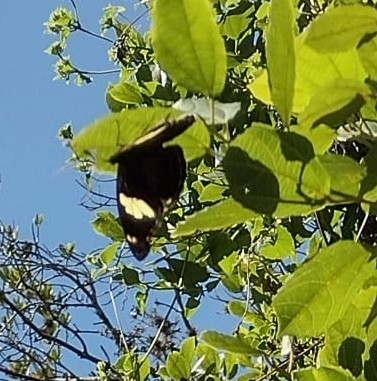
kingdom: Animalia
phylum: Arthropoda
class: Insecta
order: Lepidoptera
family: Nymphalidae
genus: Catonephele
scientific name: Catonephele numilia
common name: Blue-frosted banner
